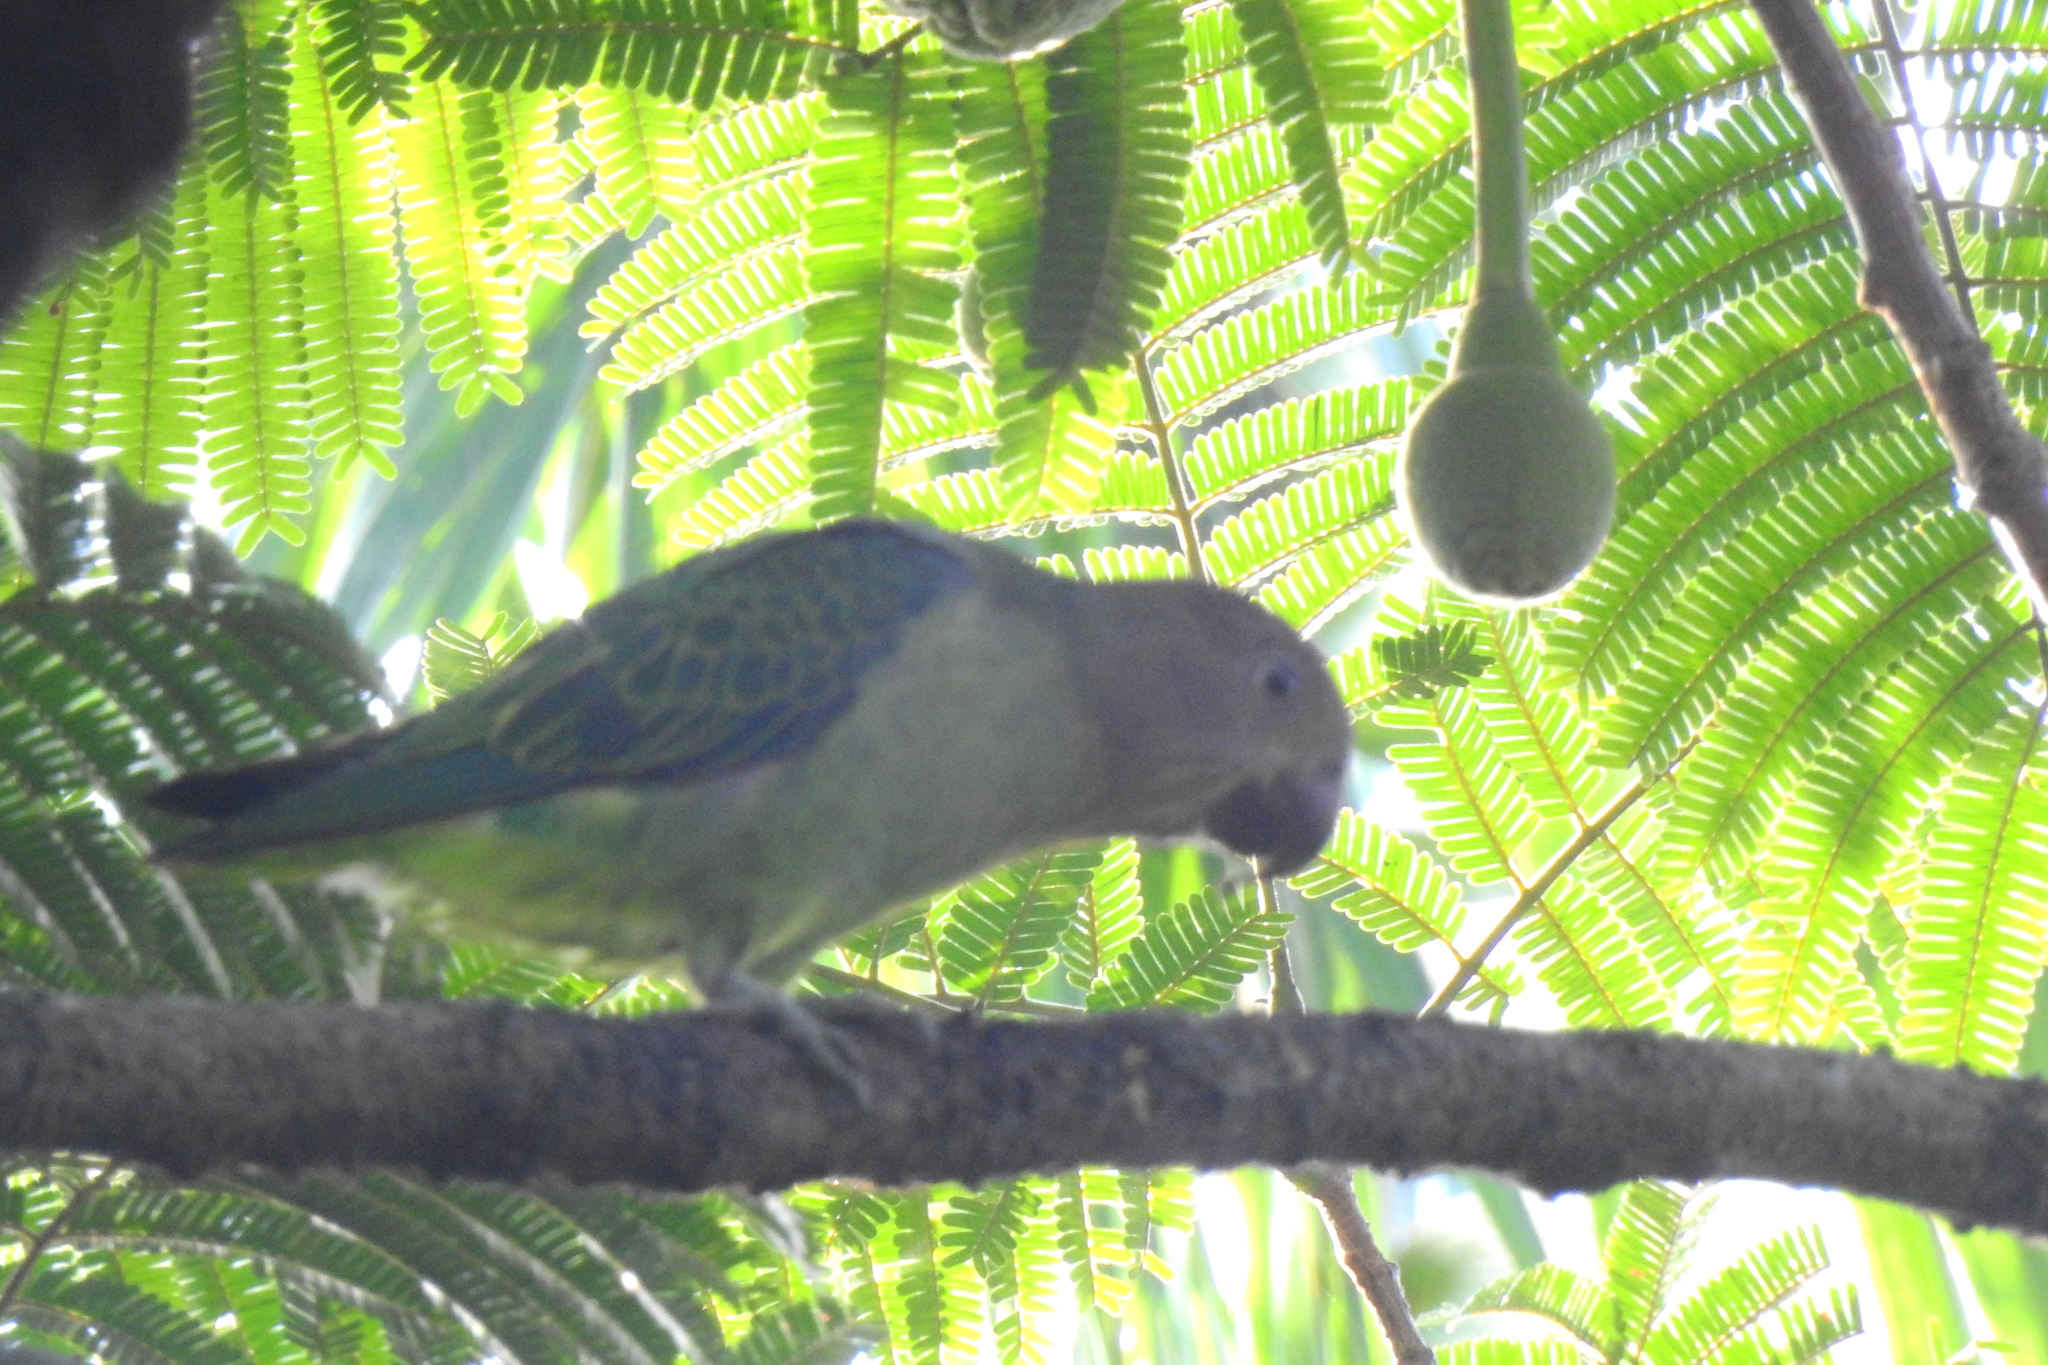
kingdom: Animalia
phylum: Chordata
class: Aves
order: Psittaciformes
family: Psittacidae
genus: Psittinus
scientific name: Psittinus cyanurus
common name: Blue-rumped parrot
